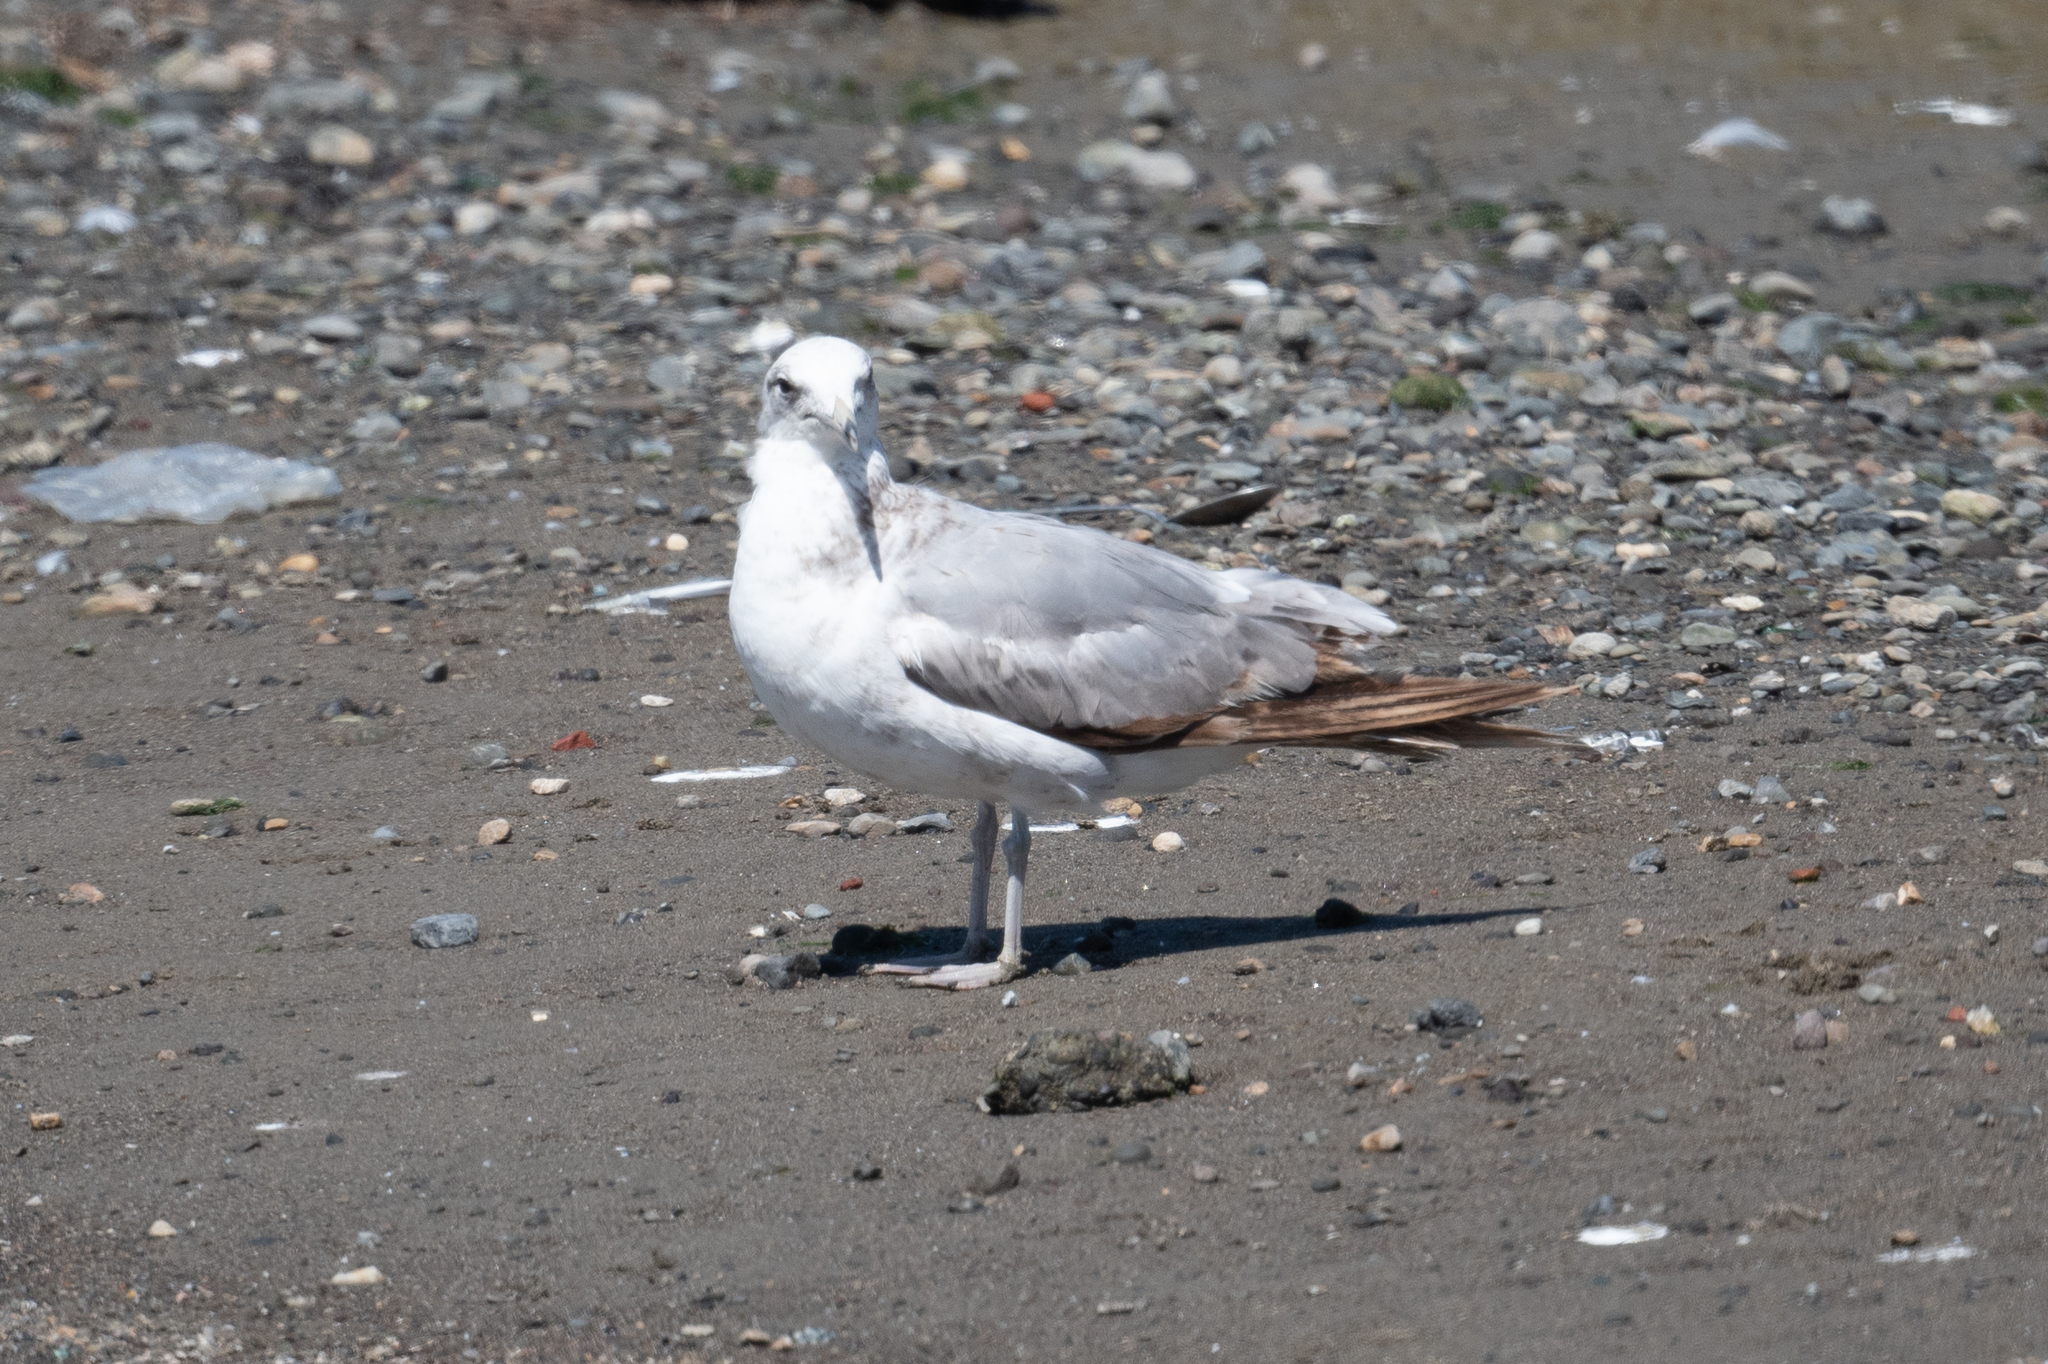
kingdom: Animalia
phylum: Chordata
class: Aves
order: Charadriiformes
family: Laridae
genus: Larus
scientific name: Larus californicus
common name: California gull
